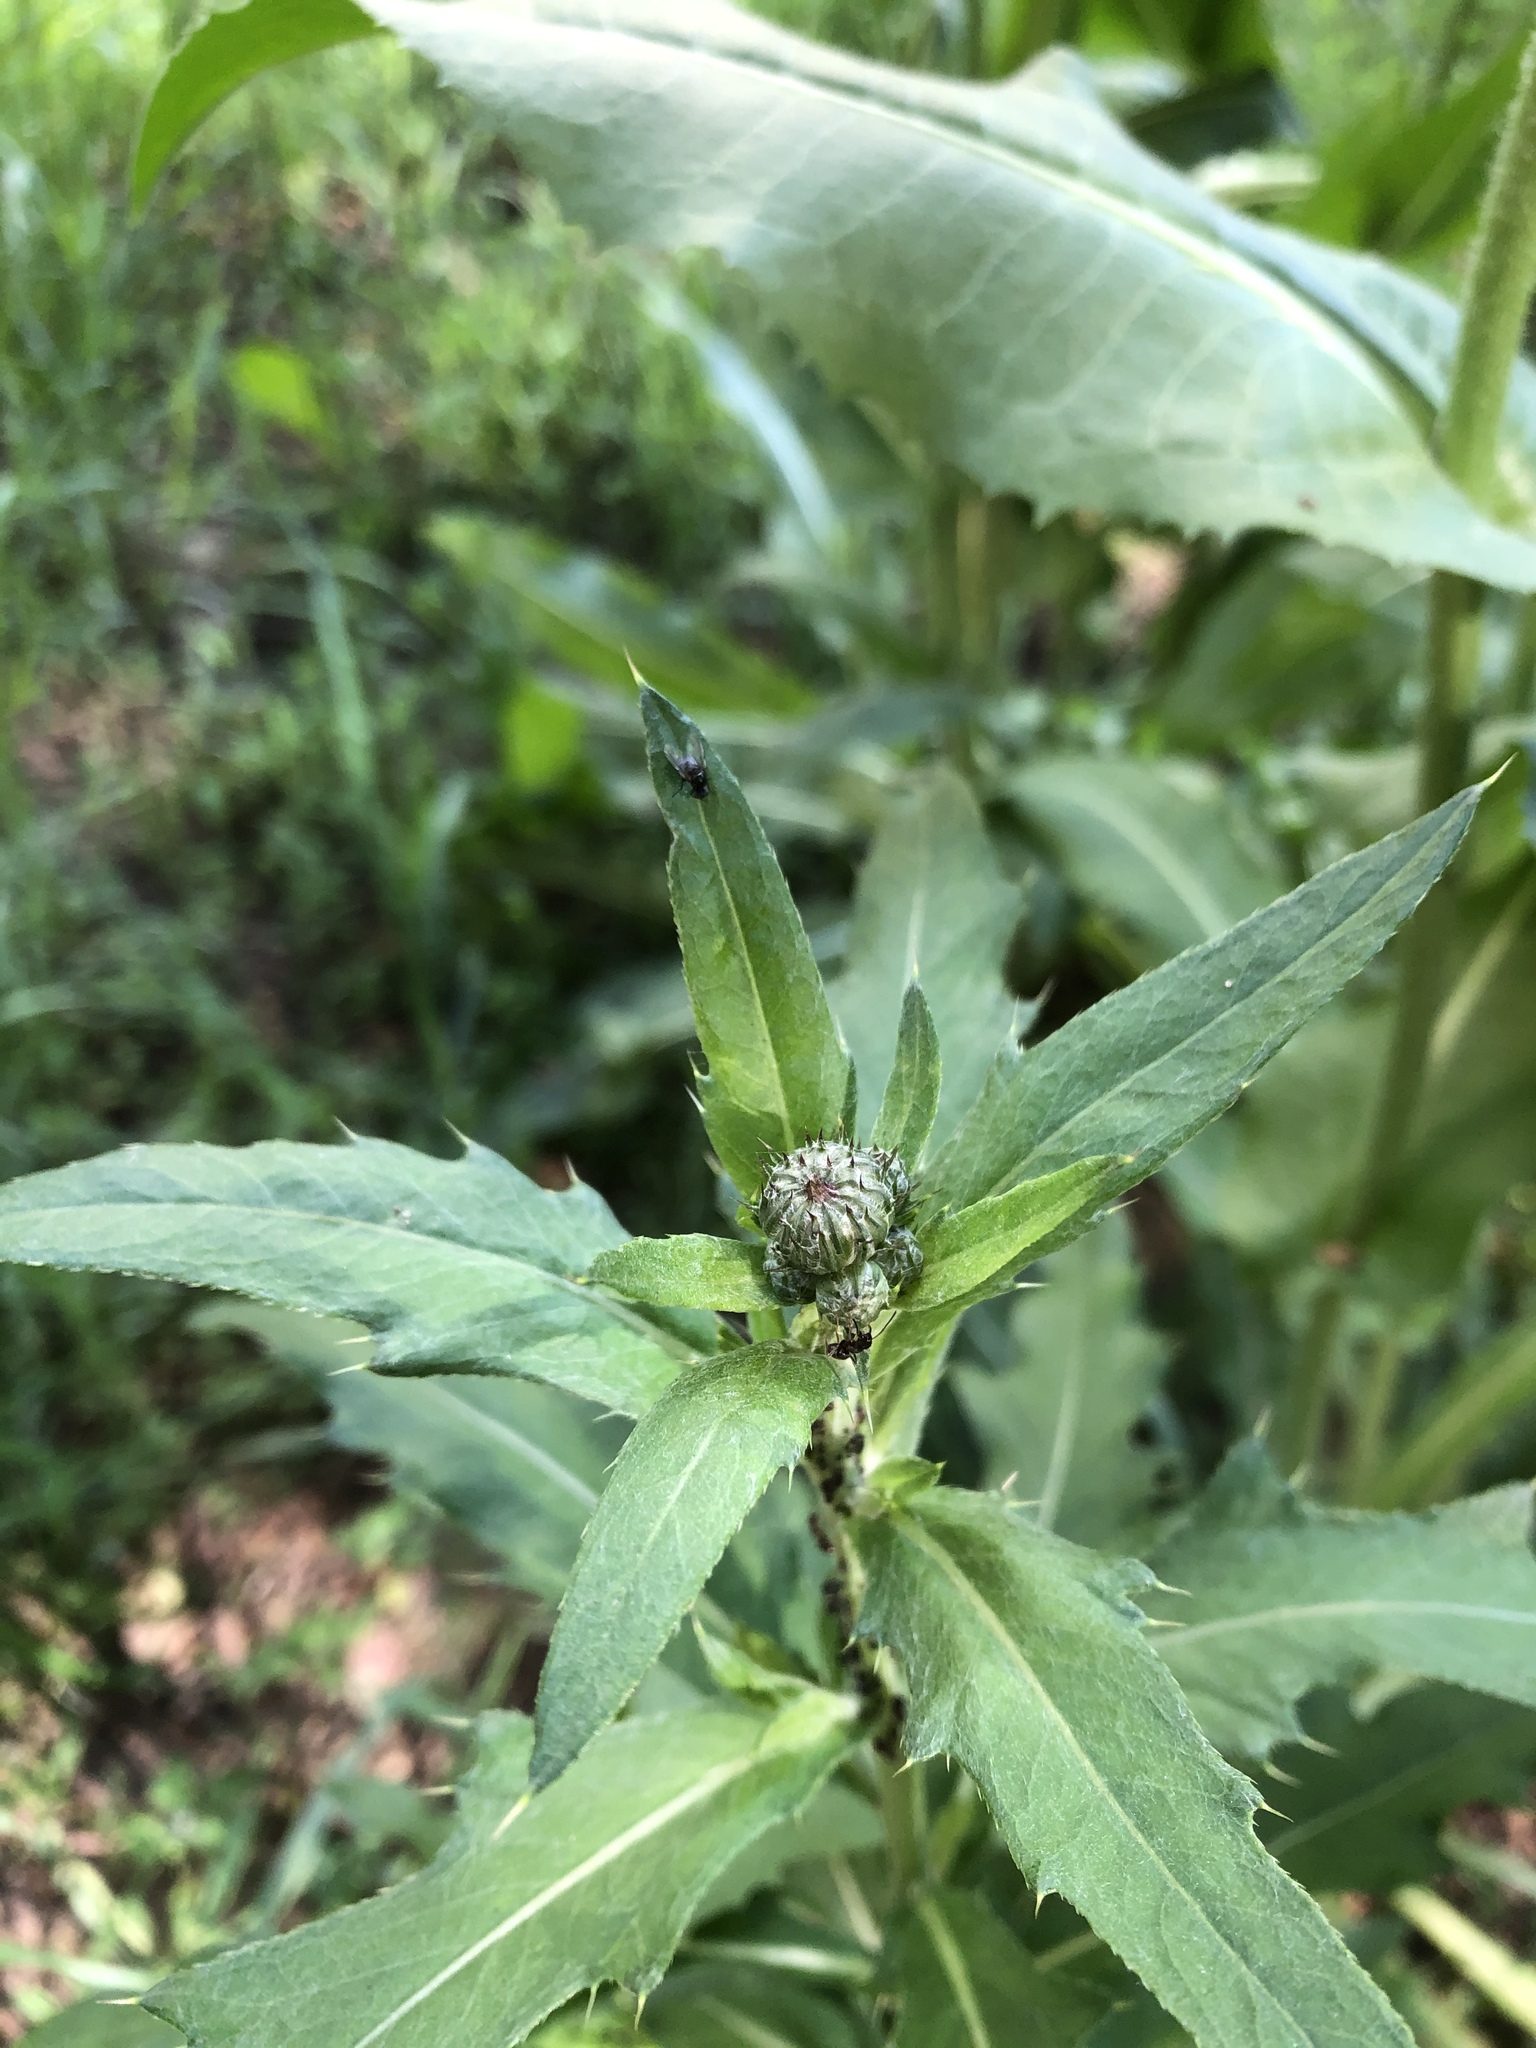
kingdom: Plantae
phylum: Tracheophyta
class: Magnoliopsida
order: Asterales
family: Asteraceae
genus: Cirsium
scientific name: Cirsium arvense
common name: Creeping thistle
